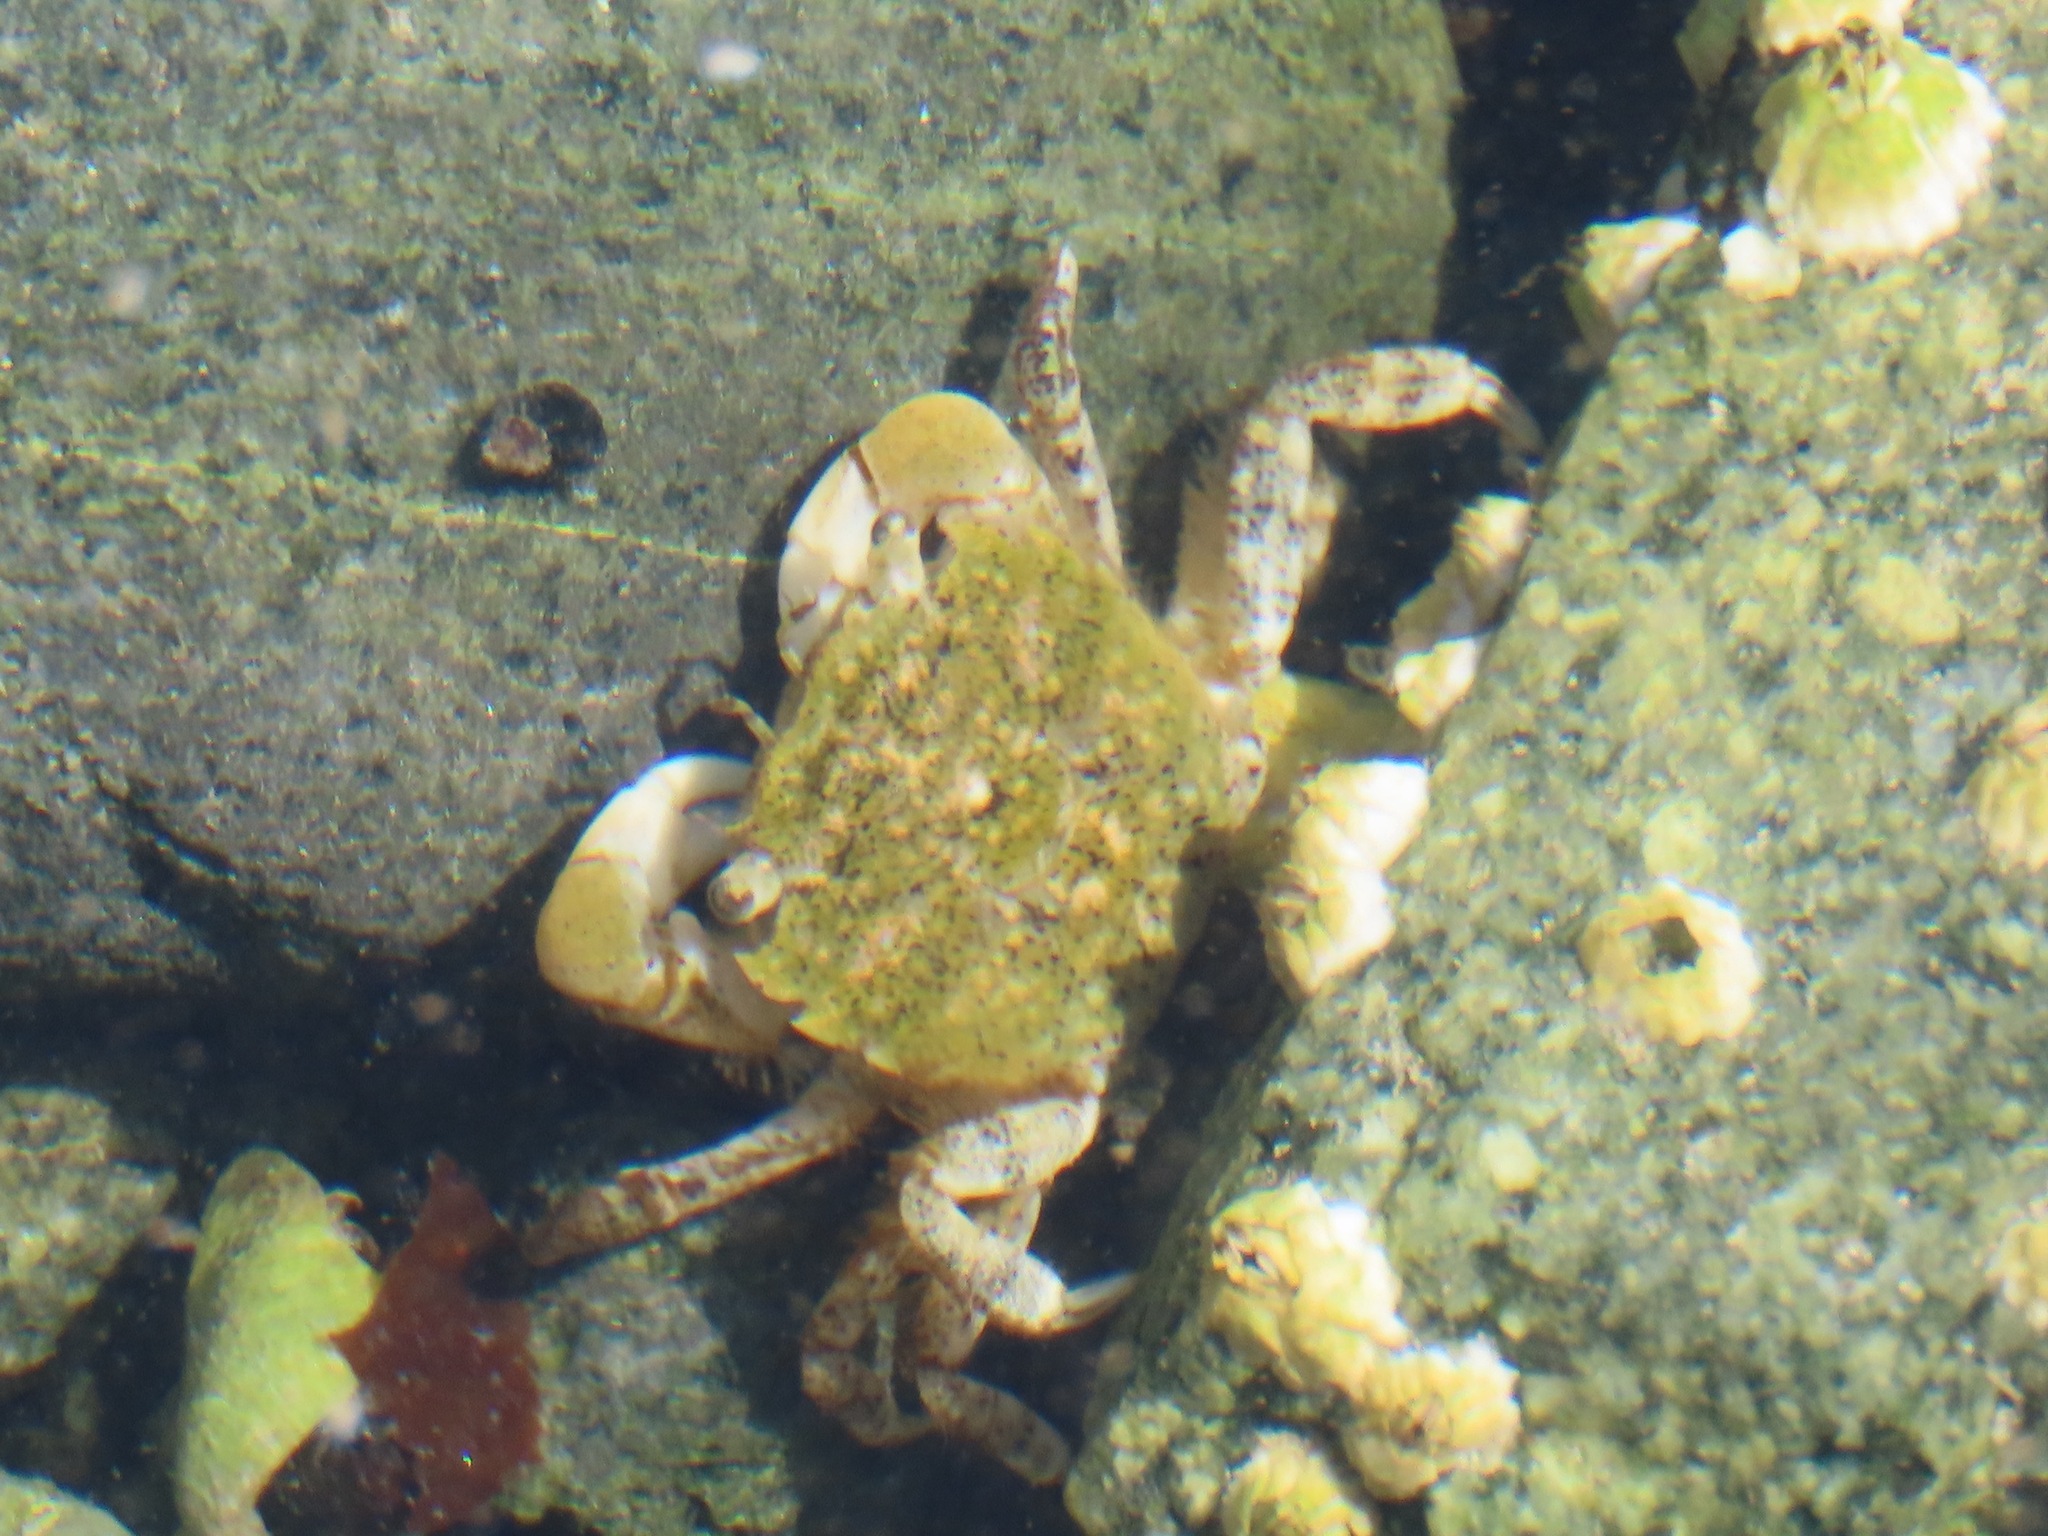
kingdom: Animalia
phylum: Arthropoda
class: Malacostraca
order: Decapoda
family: Varunidae
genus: Hemigrapsus
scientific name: Hemigrapsus oregonensis
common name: Yellow shore crab
